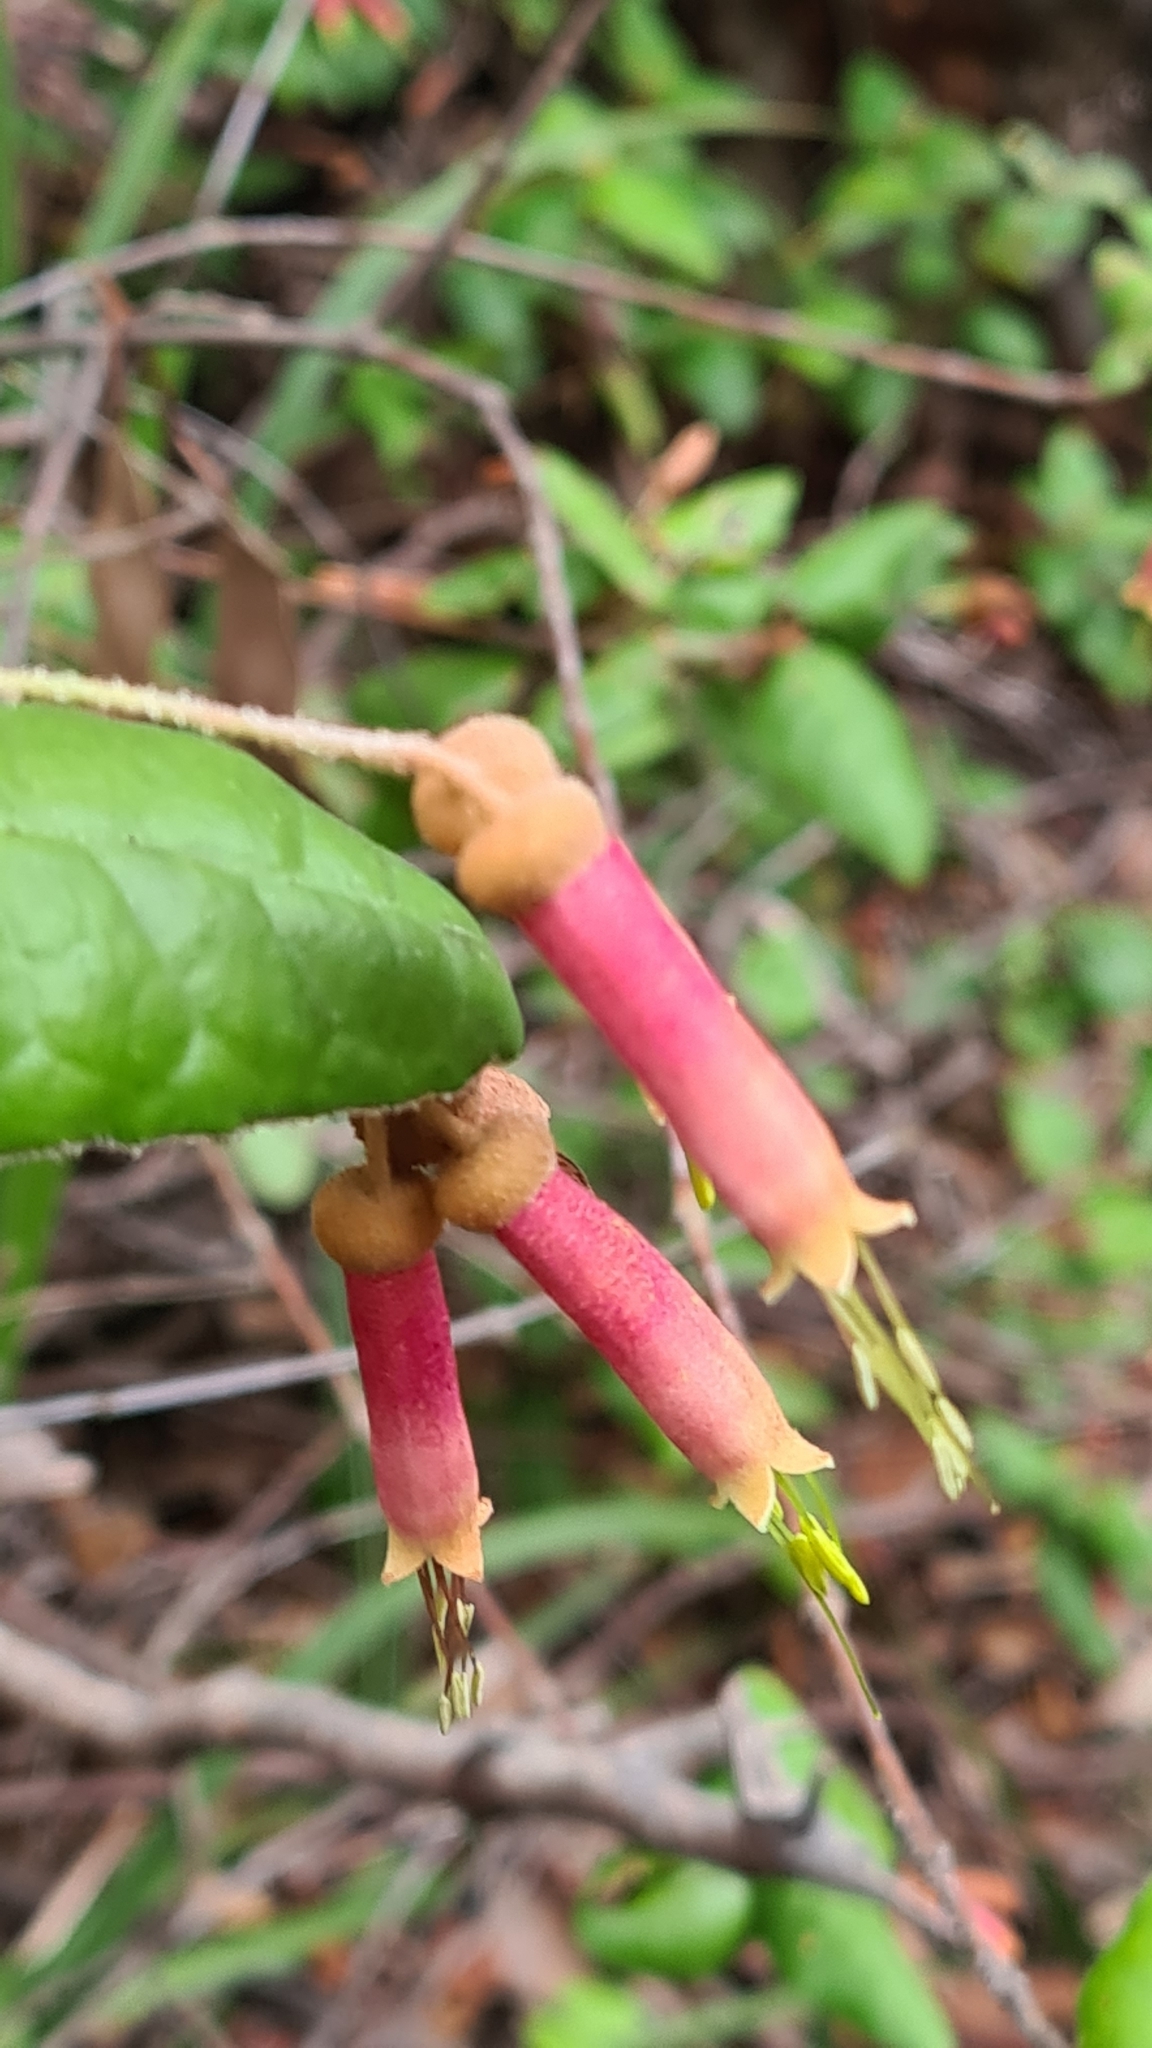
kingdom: Plantae
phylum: Tracheophyta
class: Magnoliopsida
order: Sapindales
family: Rutaceae
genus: Correa
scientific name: Correa lawrenceana
